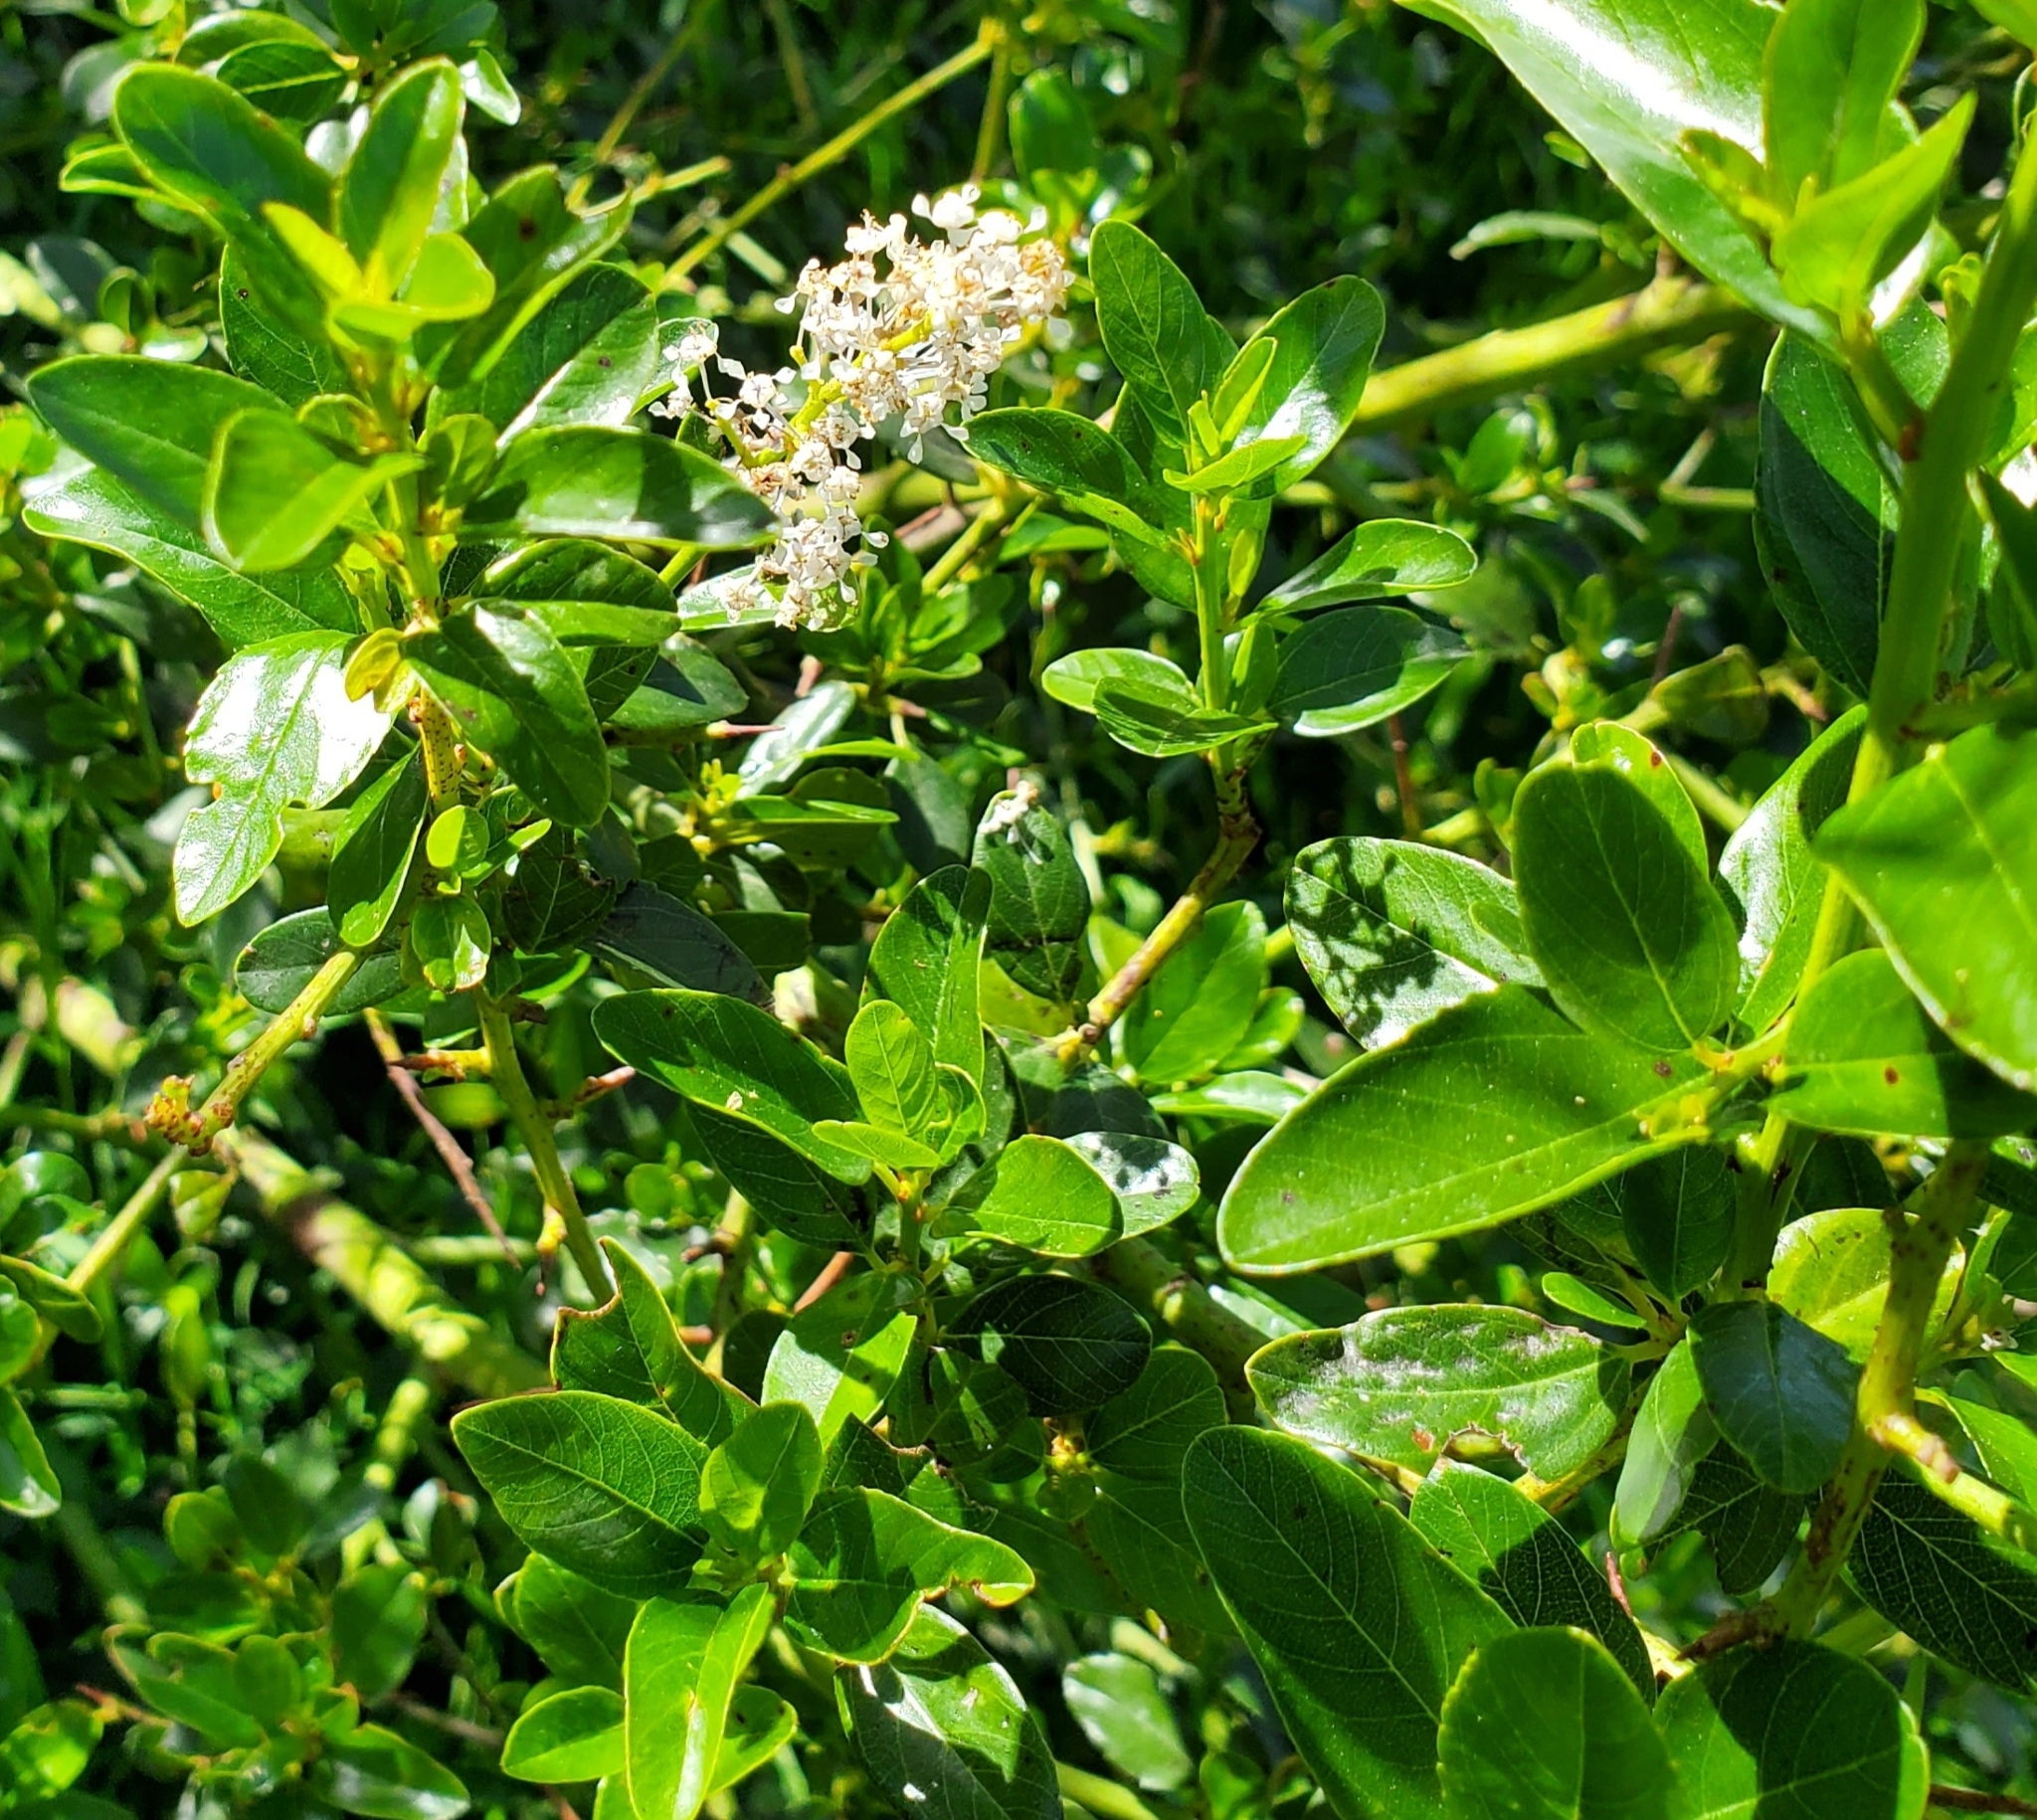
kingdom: Plantae
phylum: Tracheophyta
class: Magnoliopsida
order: Rosales
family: Rhamnaceae
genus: Ceanothus
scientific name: Ceanothus spinosus
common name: Greenbark whitethorn
